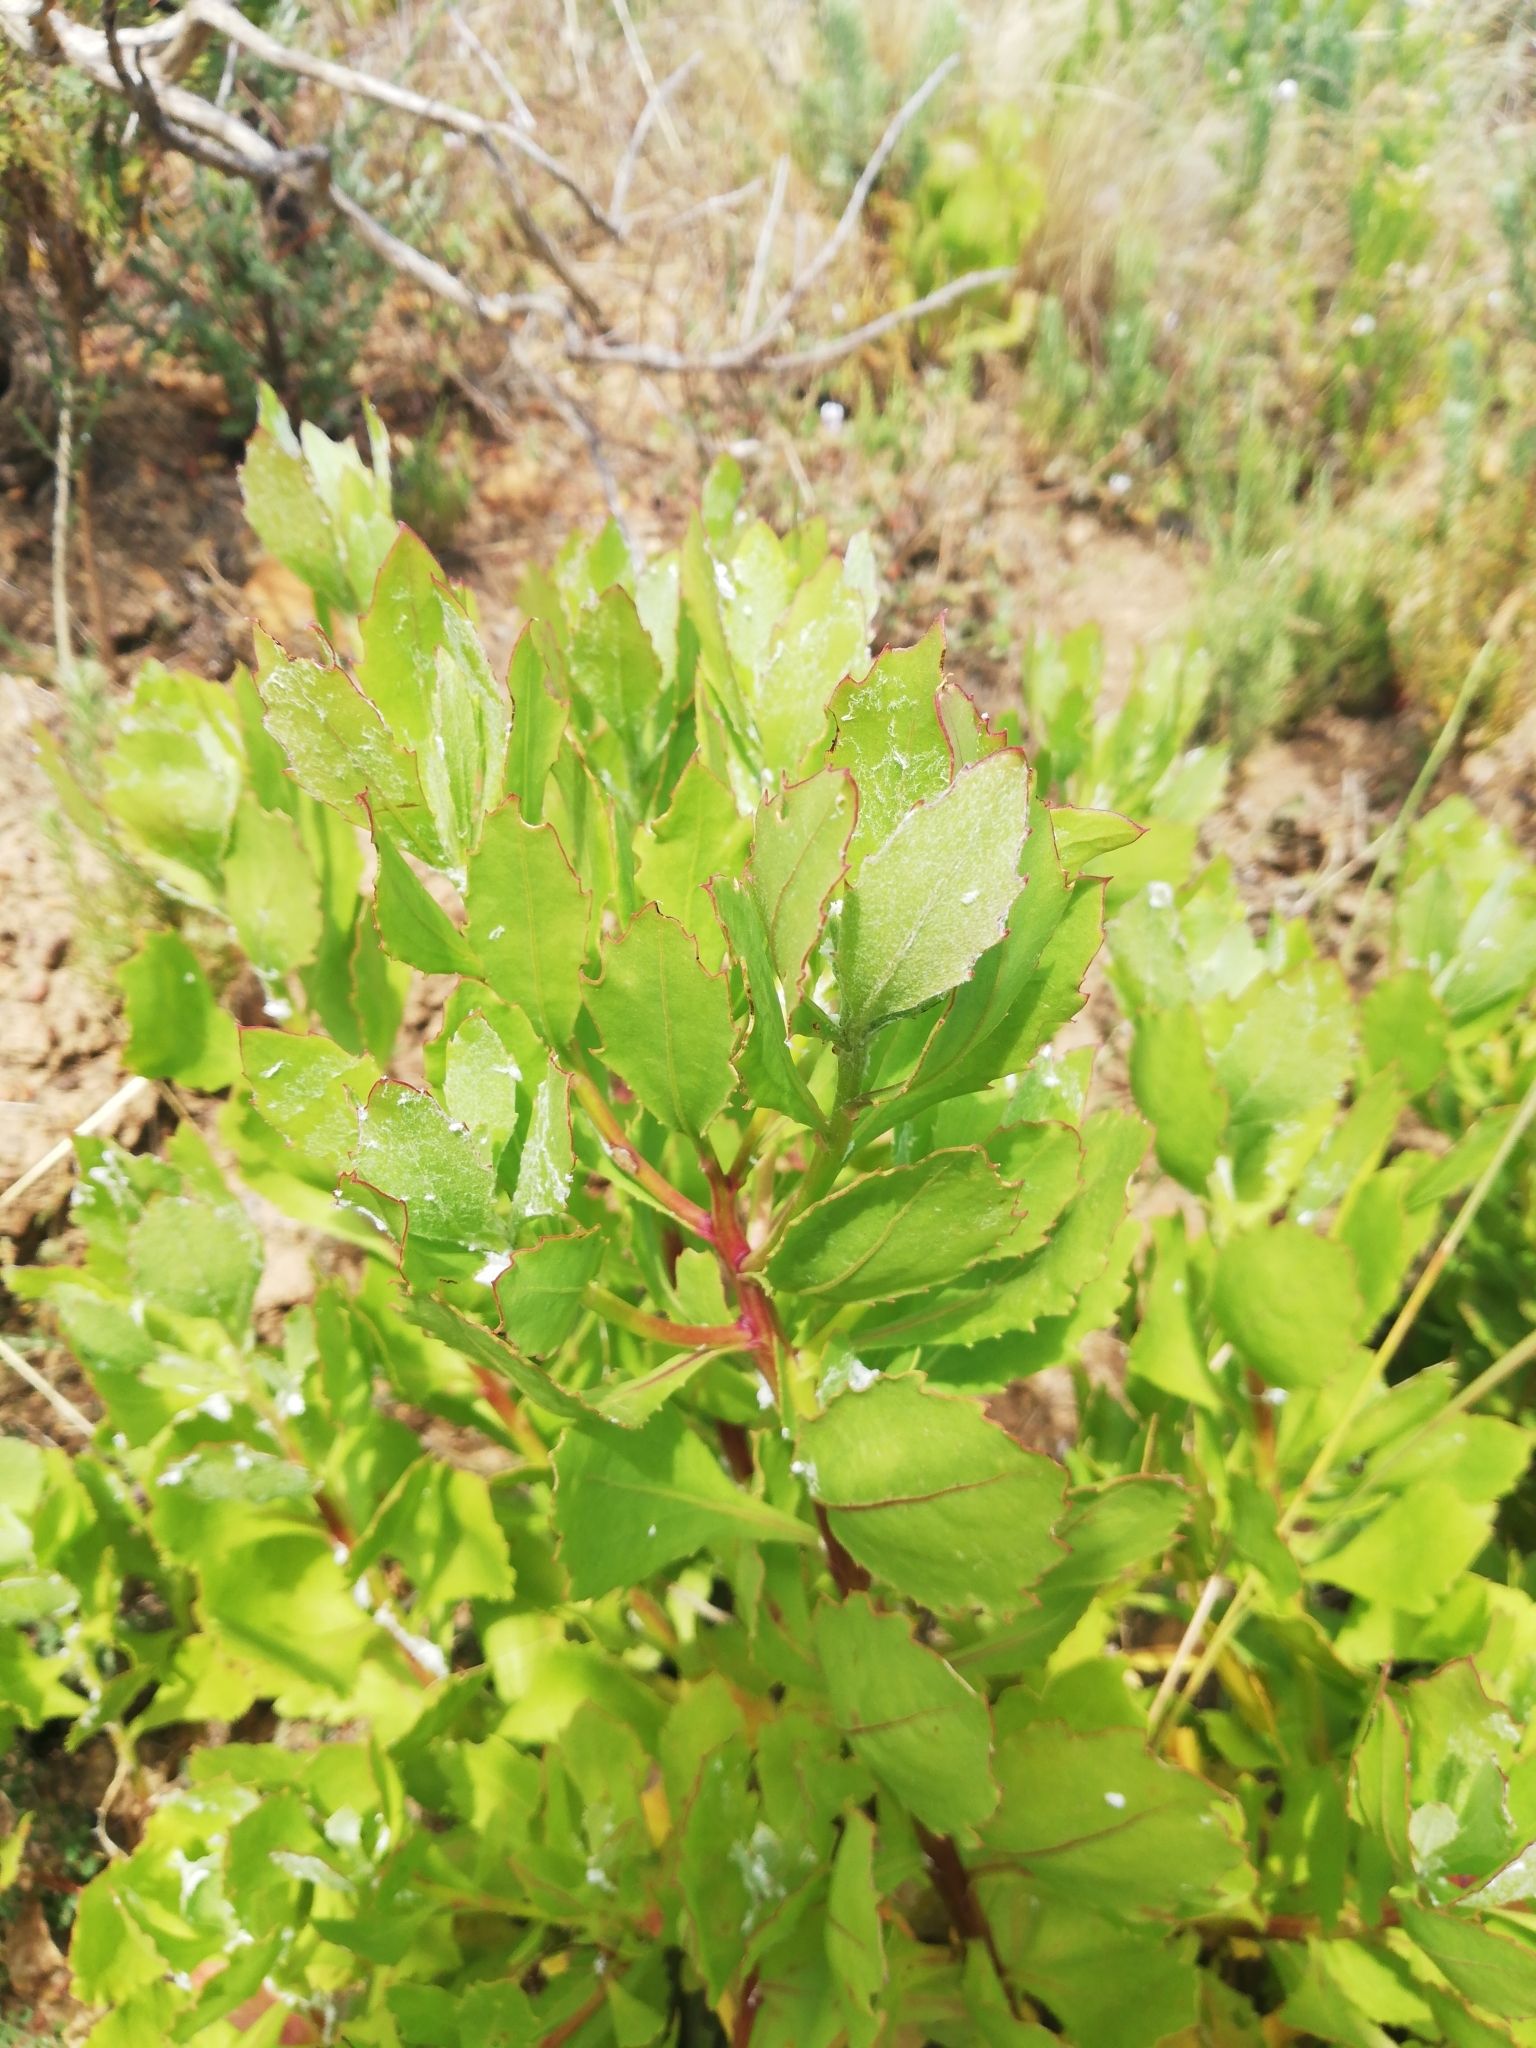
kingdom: Plantae
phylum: Tracheophyta
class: Magnoliopsida
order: Asterales
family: Asteraceae
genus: Osteospermum
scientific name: Osteospermum moniliferum
